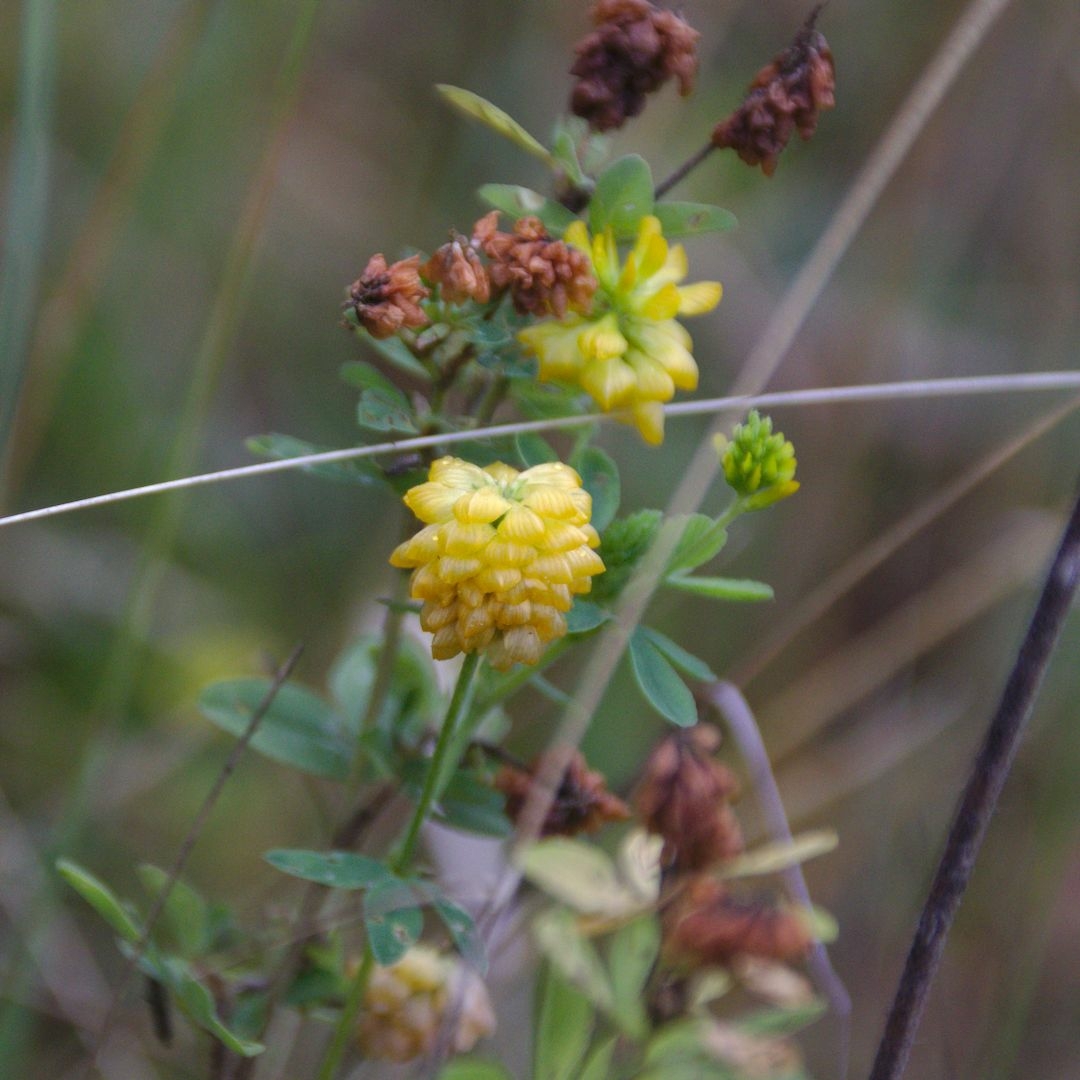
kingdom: Plantae
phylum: Tracheophyta
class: Magnoliopsida
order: Fabales
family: Fabaceae
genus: Trifolium
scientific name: Trifolium aureum
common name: Golden clover
